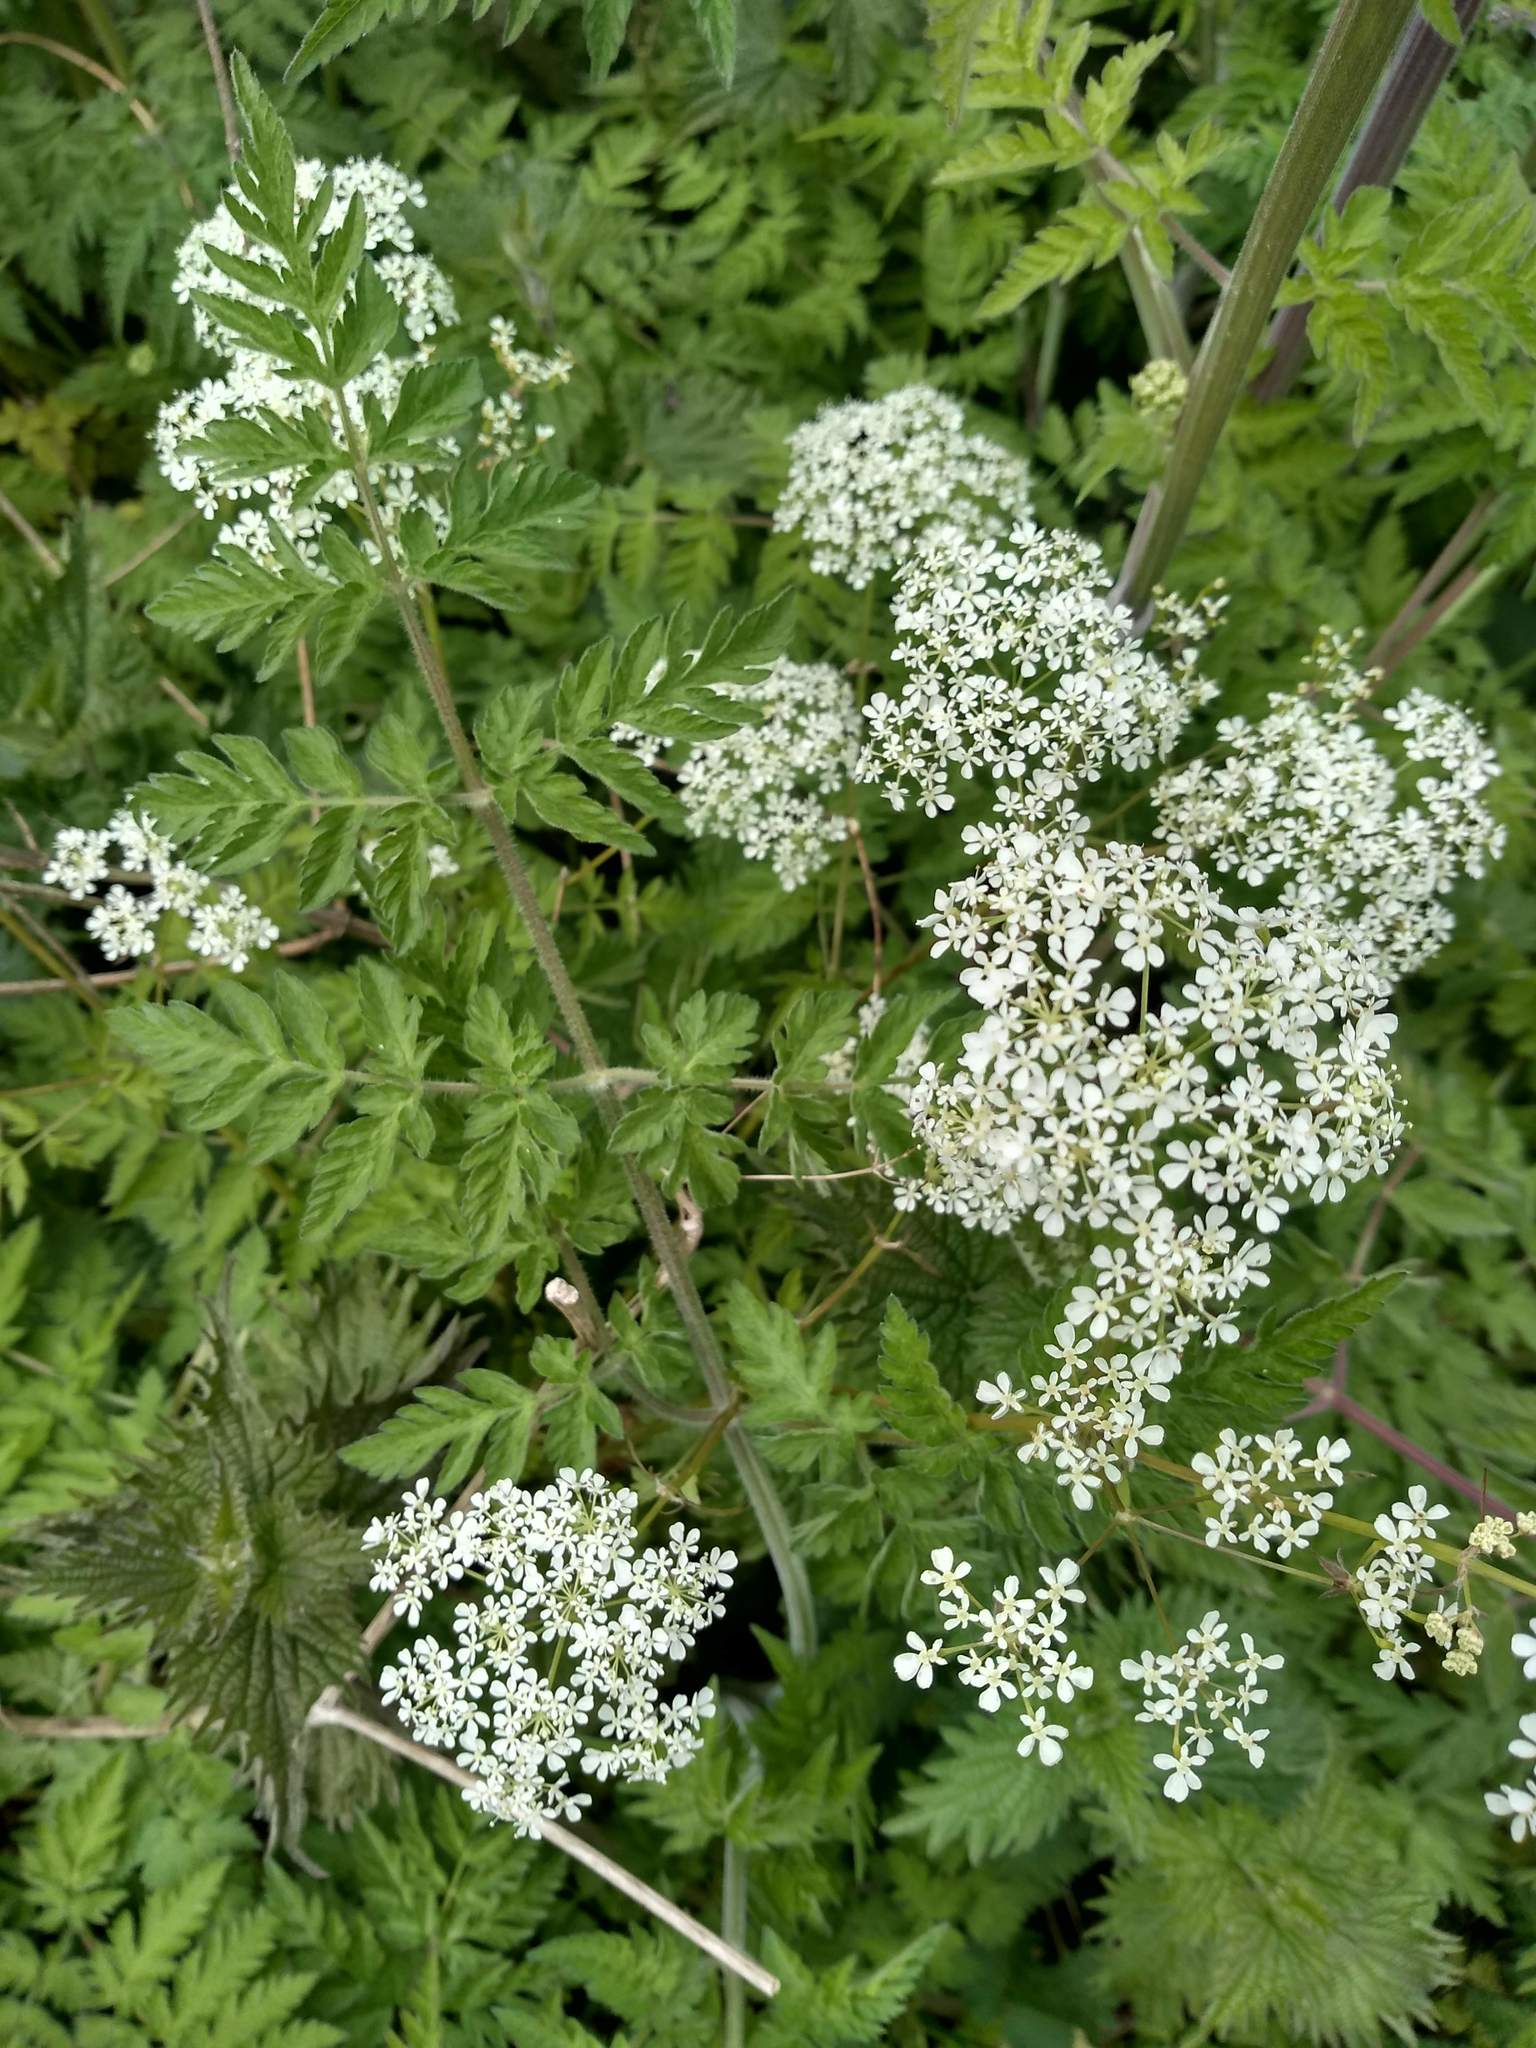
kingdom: Plantae
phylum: Tracheophyta
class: Magnoliopsida
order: Apiales
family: Apiaceae
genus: Anthriscus
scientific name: Anthriscus sylvestris
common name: Cow parsley
